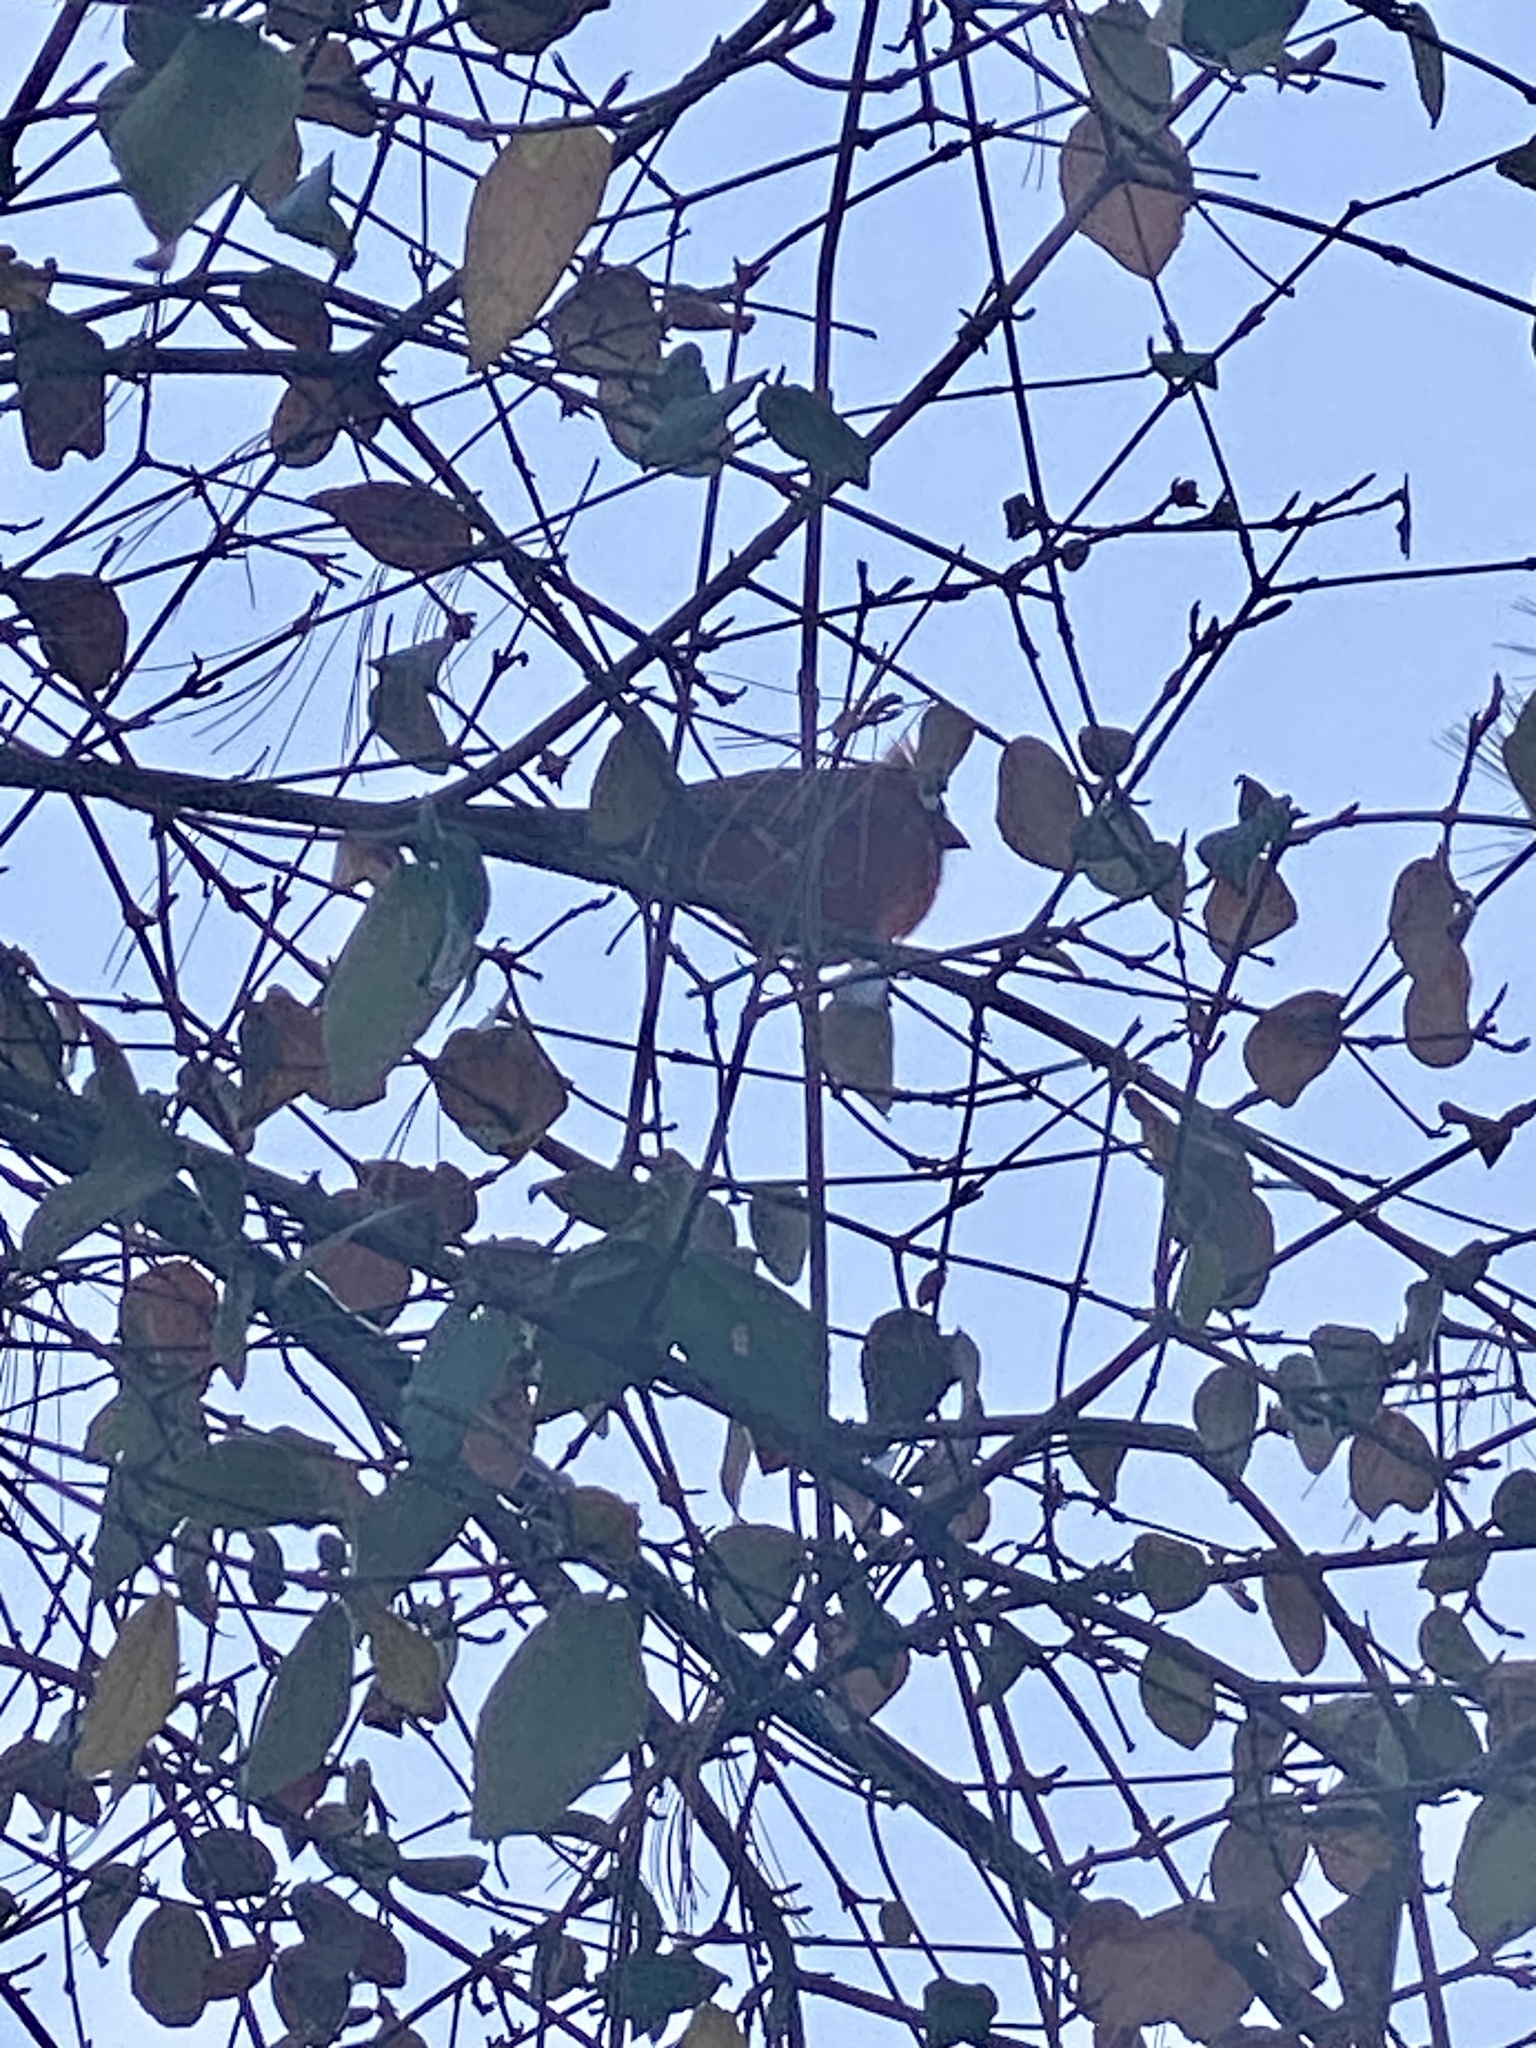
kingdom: Animalia
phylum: Chordata
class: Aves
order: Passeriformes
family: Cardinalidae
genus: Cardinalis
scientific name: Cardinalis cardinalis
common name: Northern cardinal
